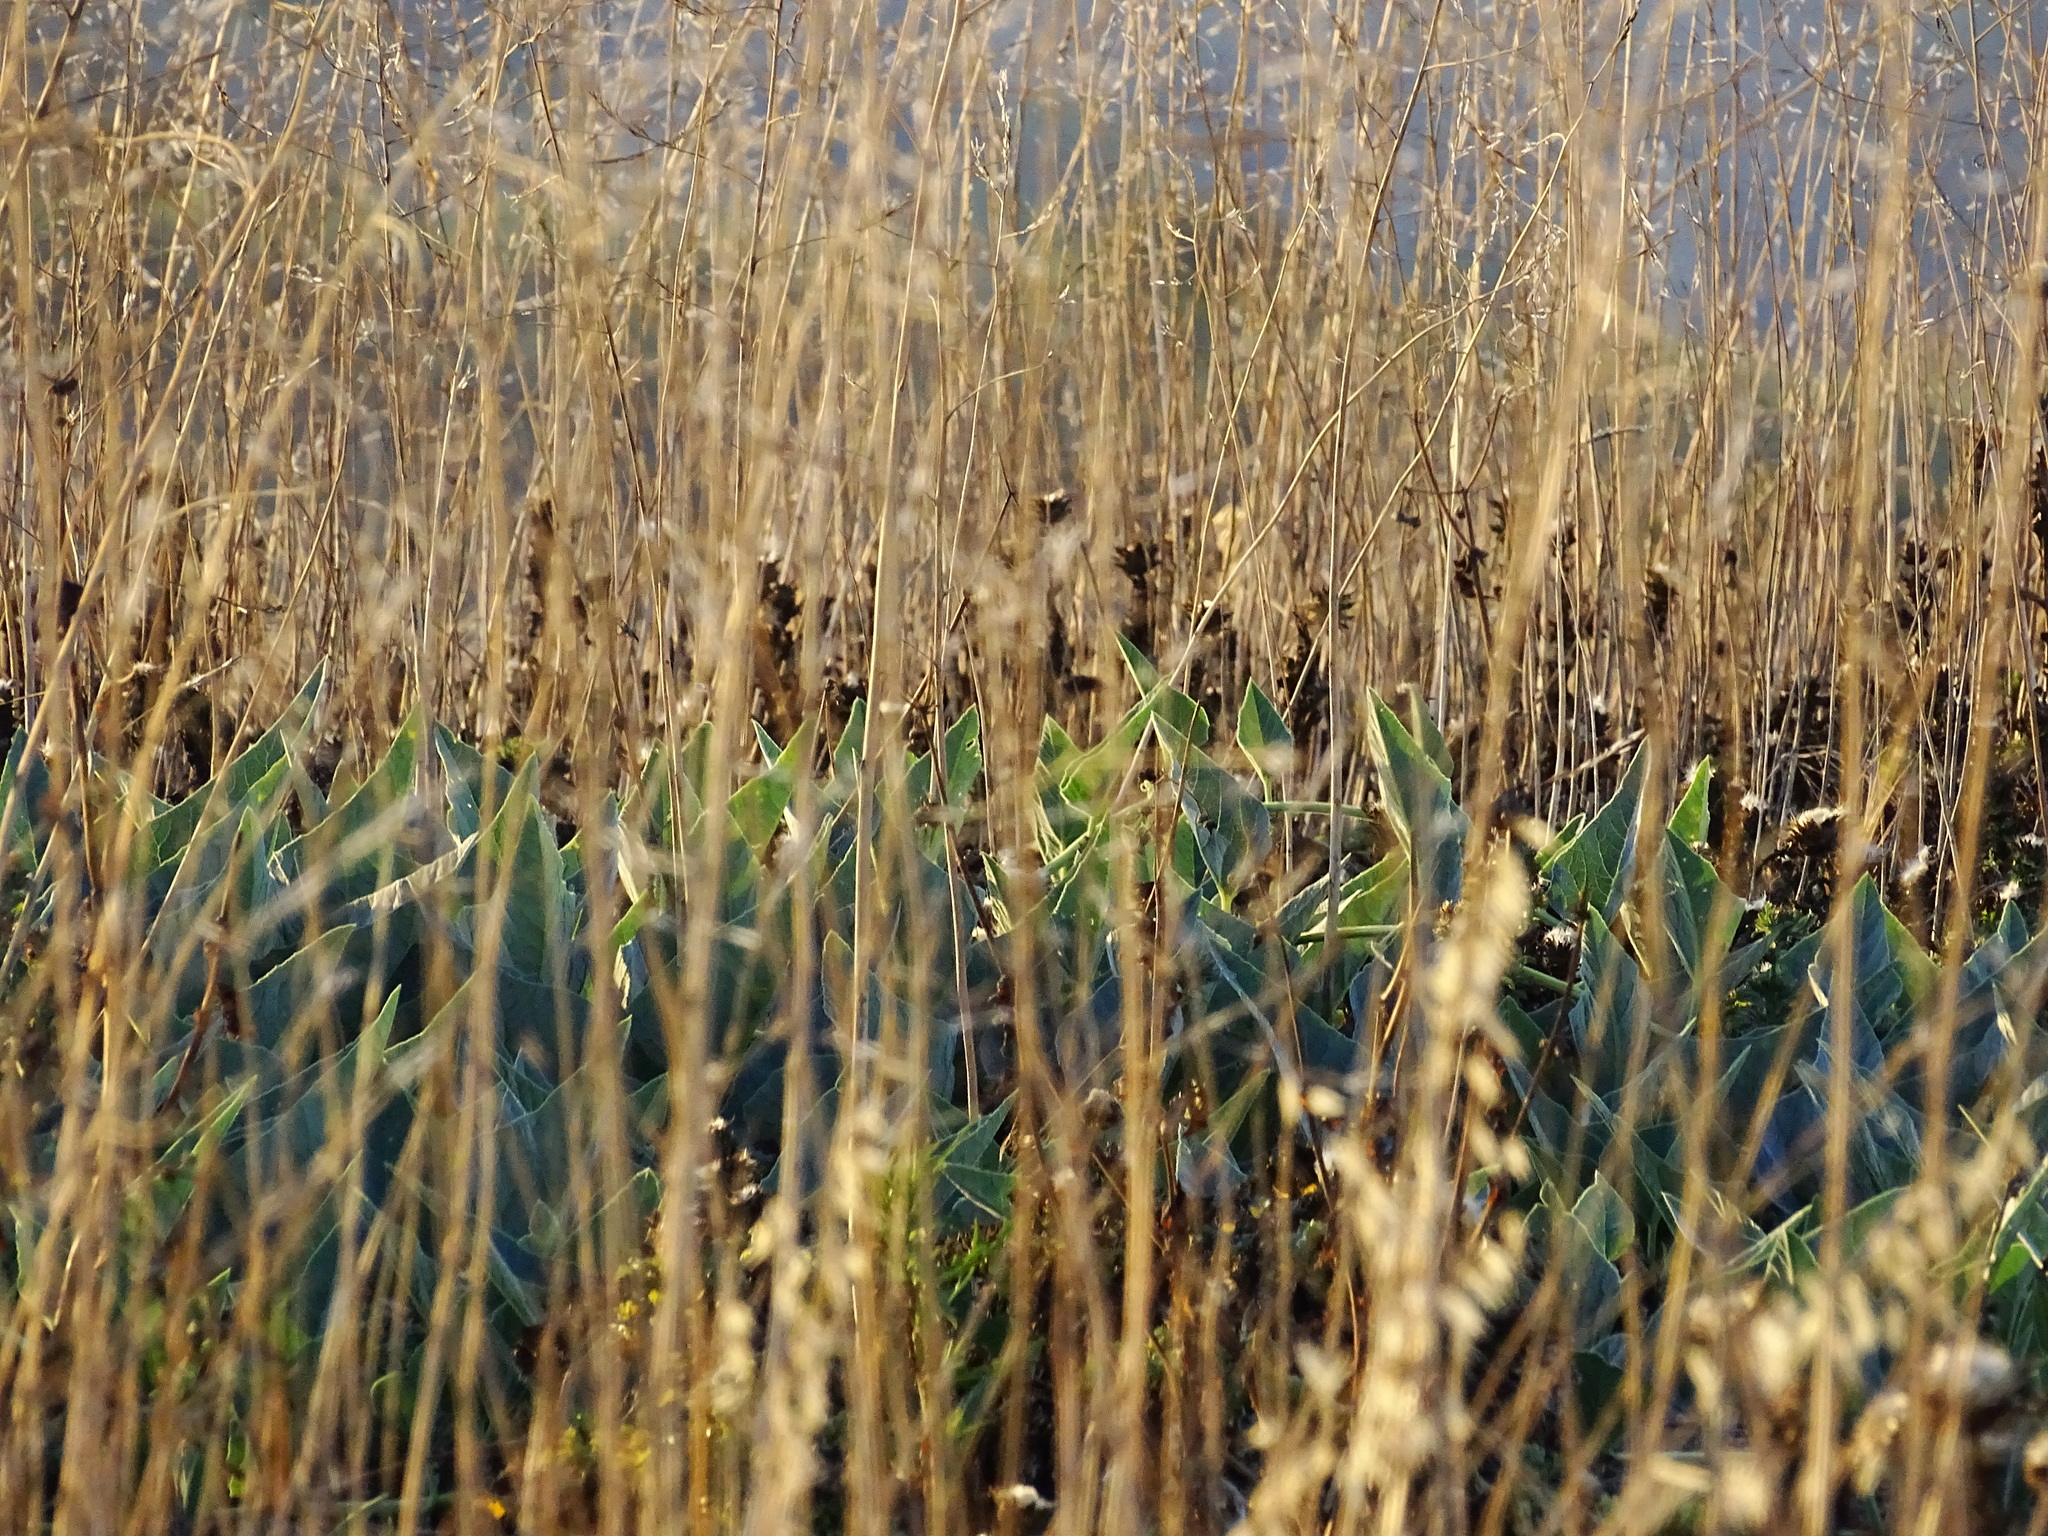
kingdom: Plantae
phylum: Tracheophyta
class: Magnoliopsida
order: Cucurbitales
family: Cucurbitaceae
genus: Cucurbita
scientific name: Cucurbita foetidissima
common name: Buffalo gourd
